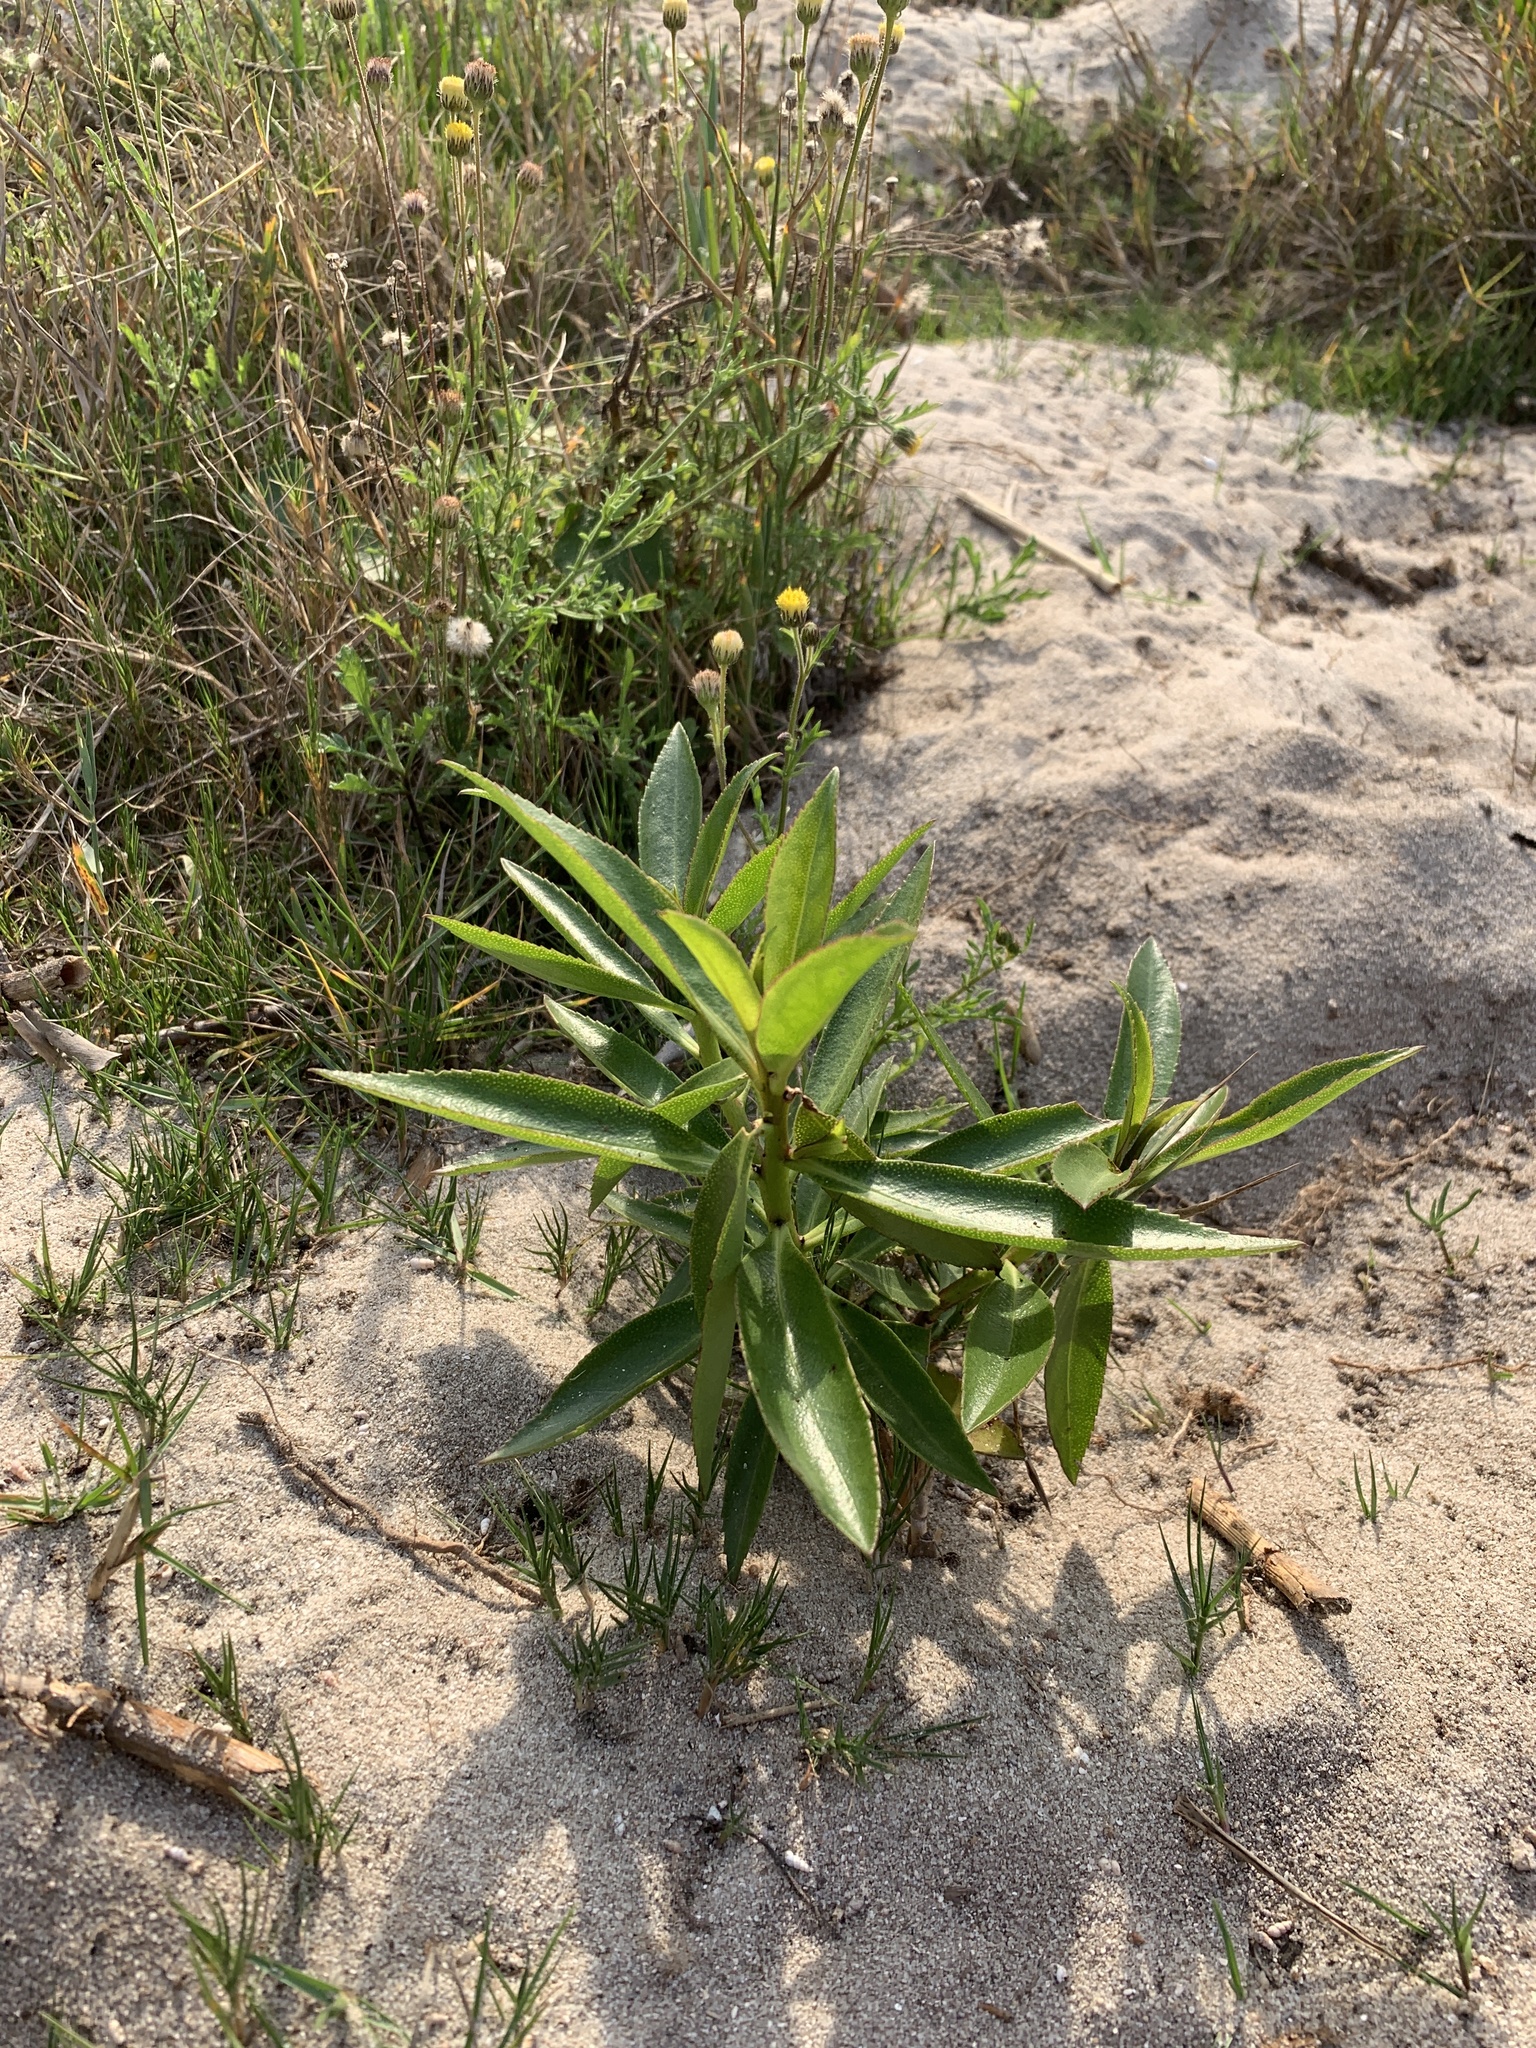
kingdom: Plantae
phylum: Tracheophyta
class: Magnoliopsida
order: Lamiales
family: Scrophulariaceae
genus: Myoporum
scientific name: Myoporum laetum
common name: Ngaio tree
